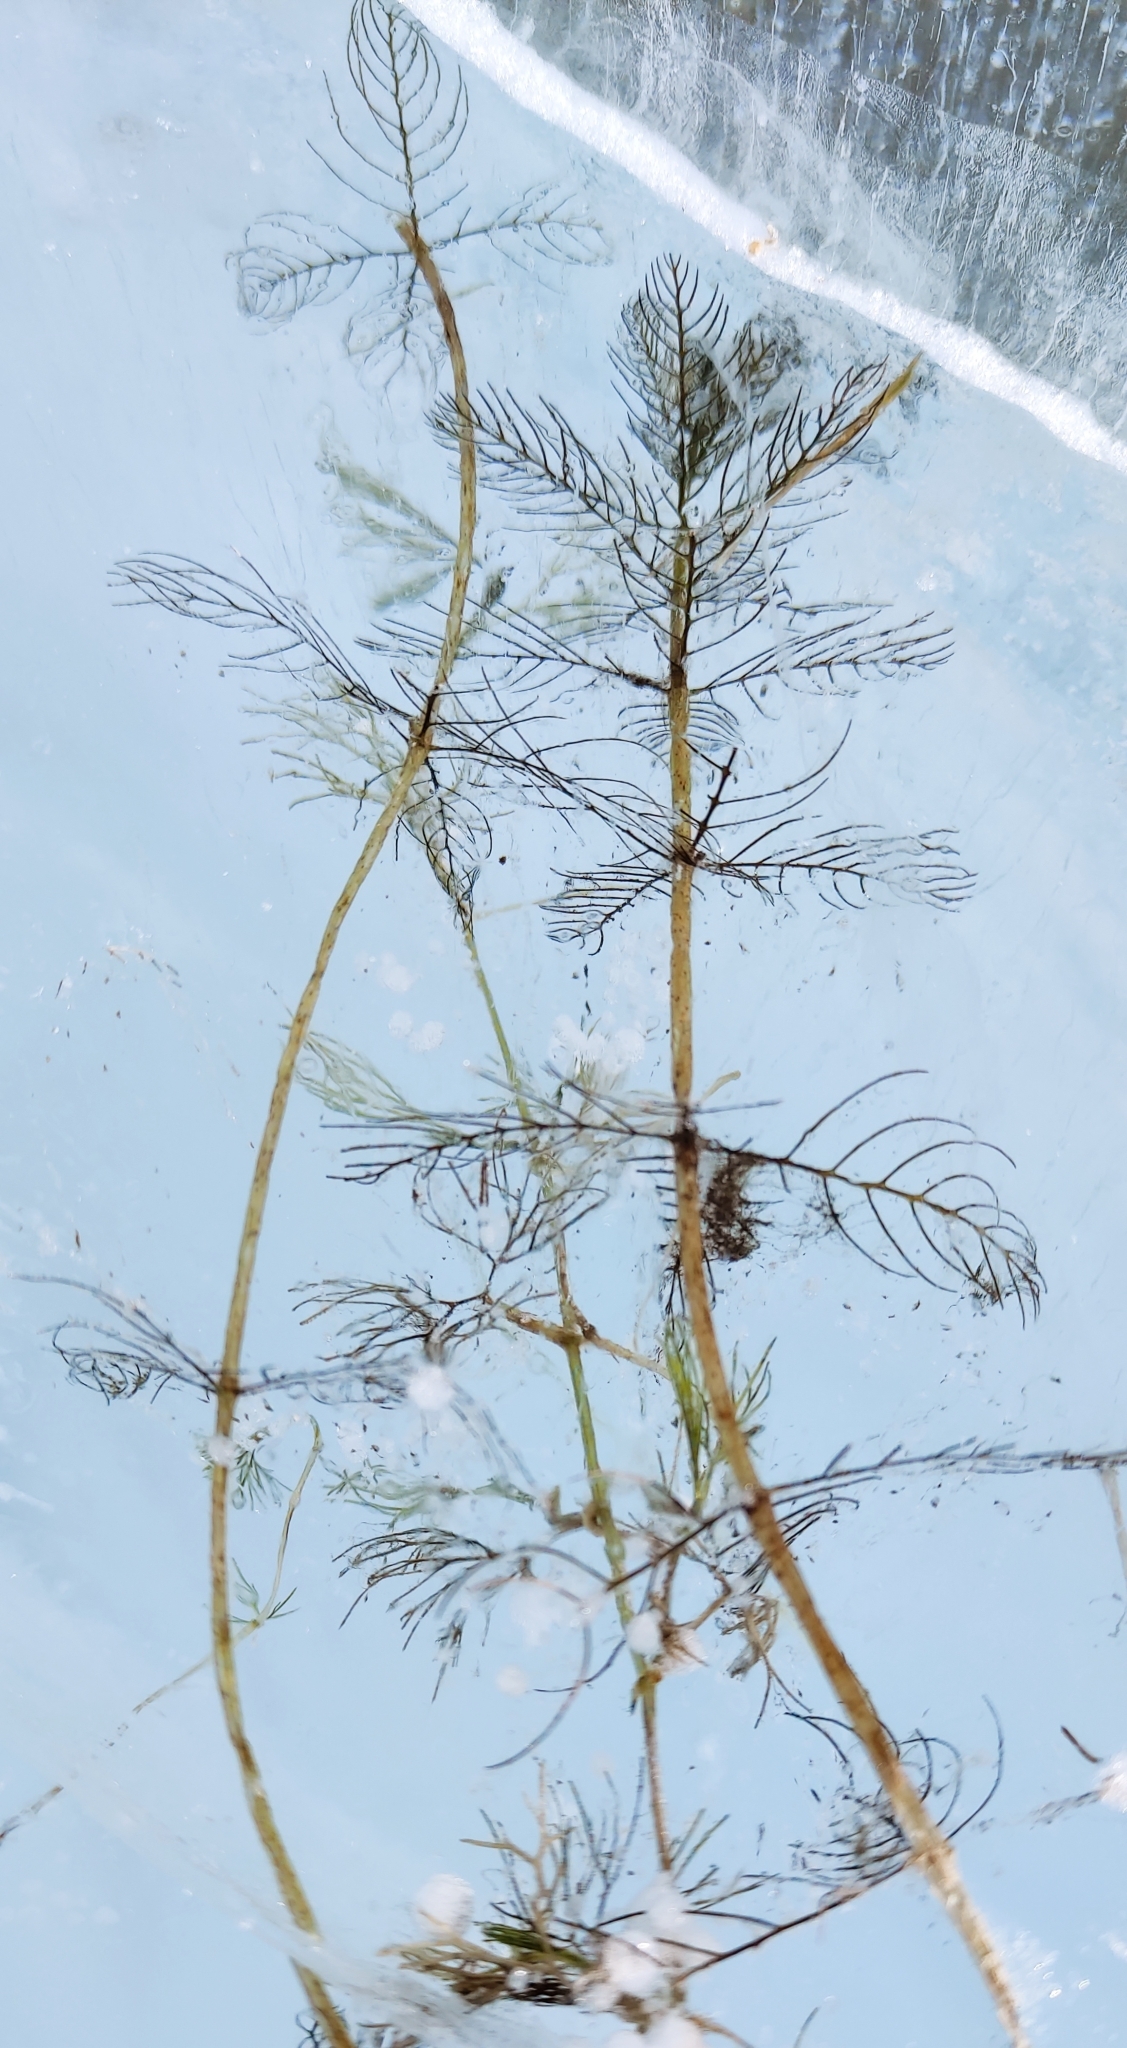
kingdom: Plantae
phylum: Tracheophyta
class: Magnoliopsida
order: Saxifragales
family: Haloragaceae
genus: Myriophyllum
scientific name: Myriophyllum sibiricum
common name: Siberian water-milfoil
